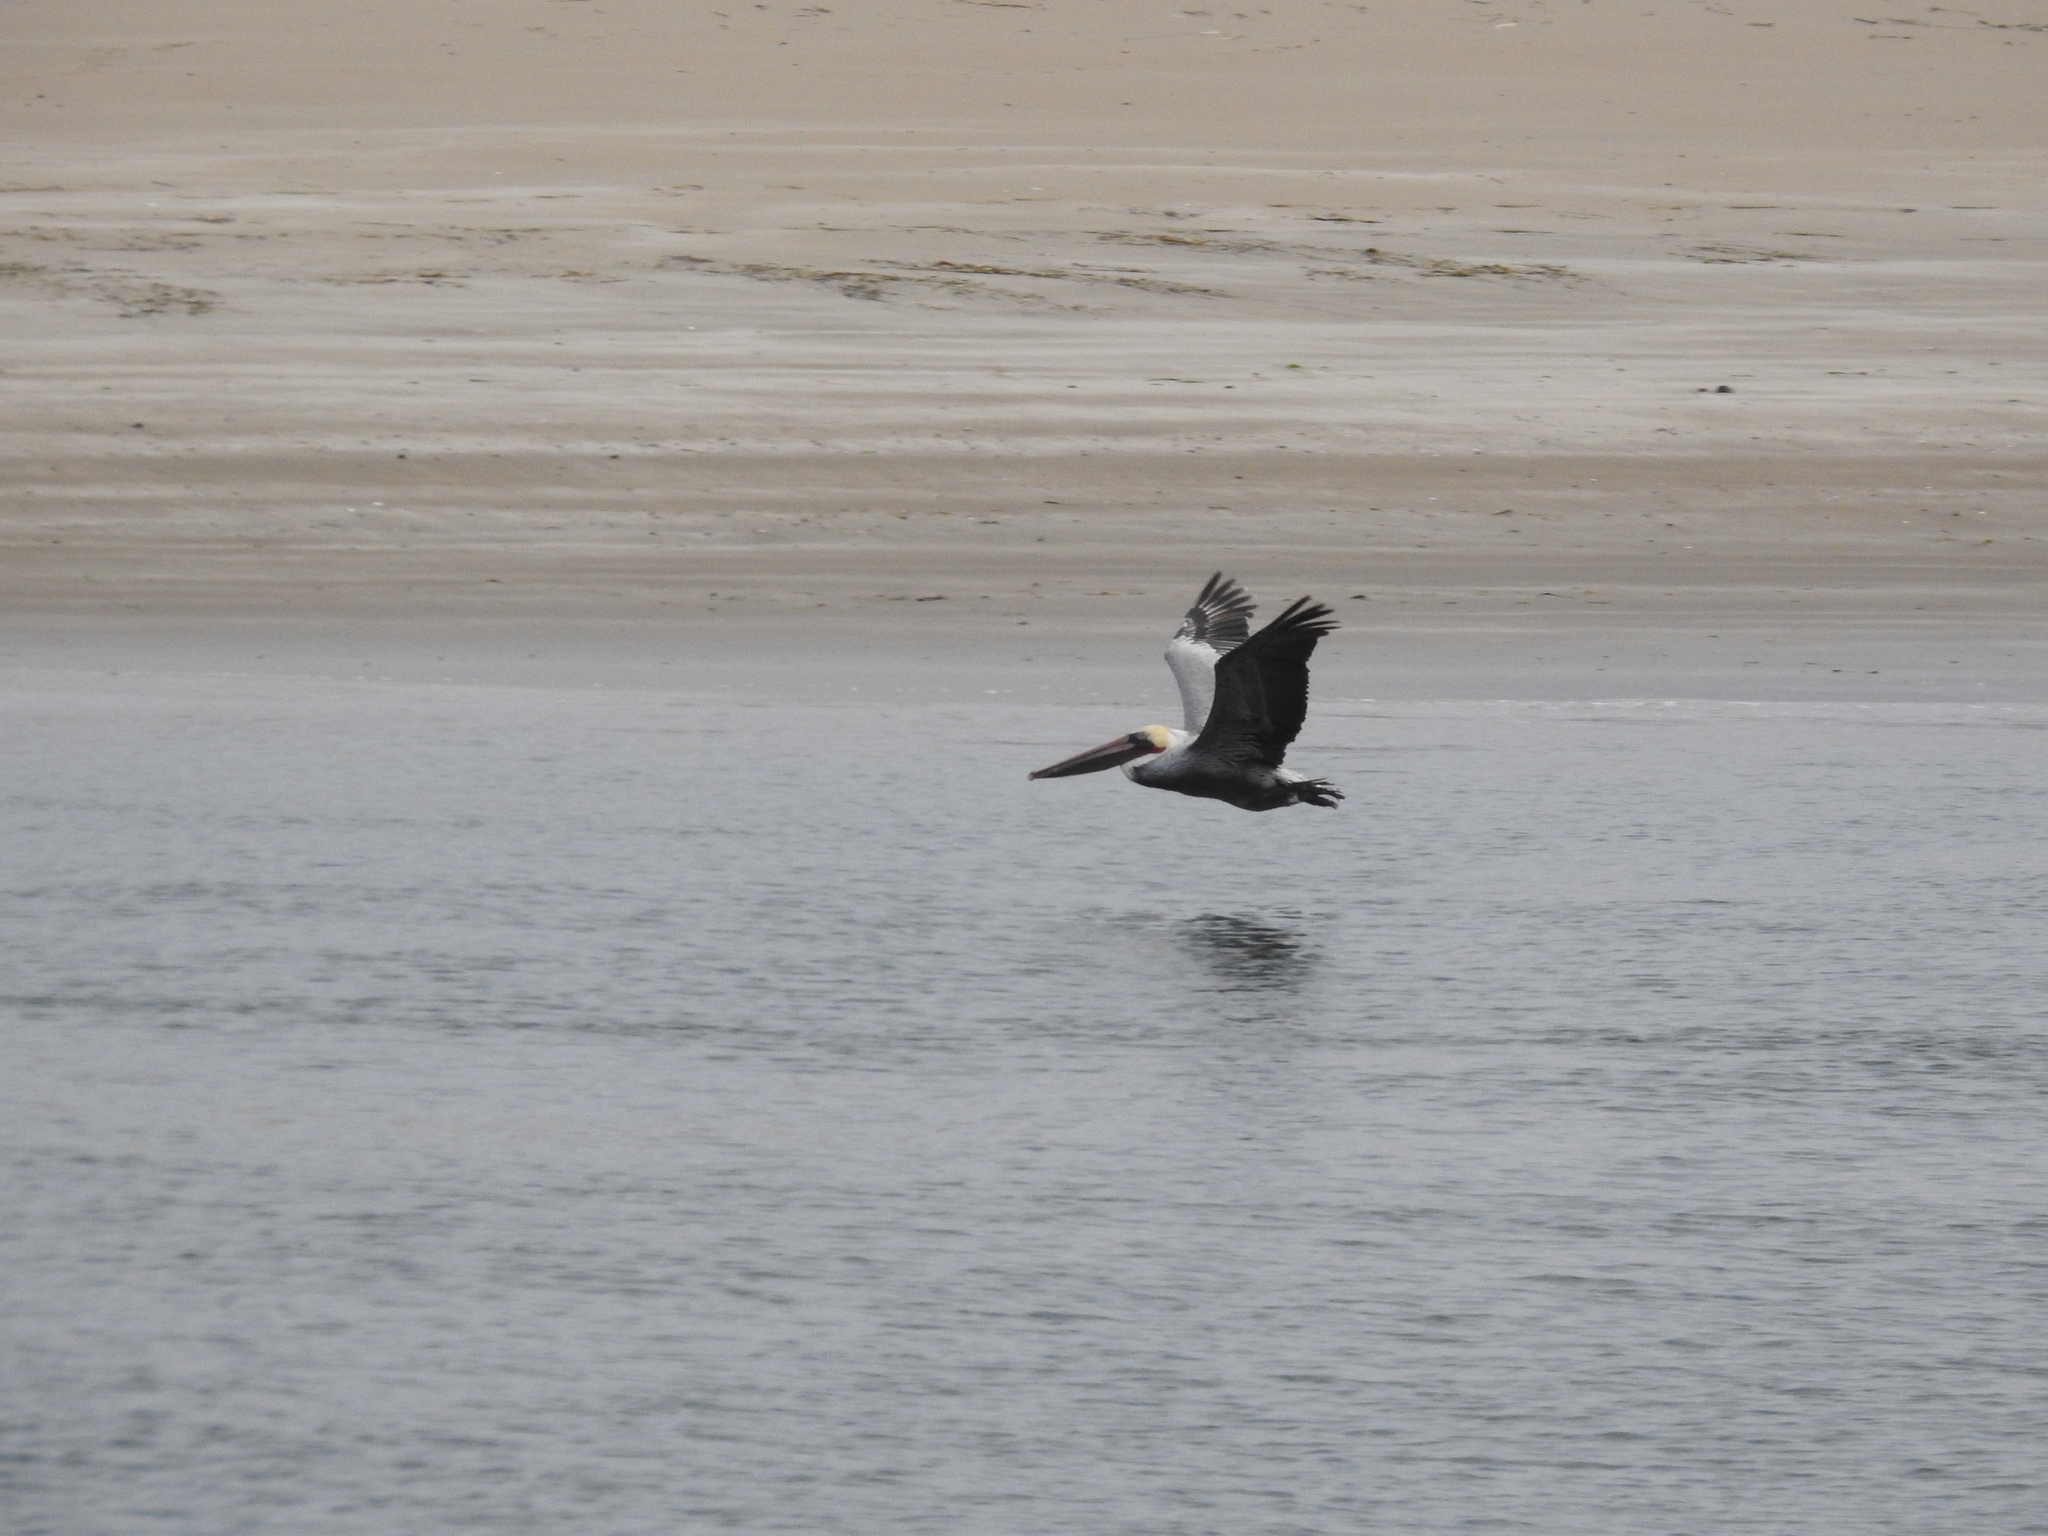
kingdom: Animalia
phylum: Chordata
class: Aves
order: Pelecaniformes
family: Pelecanidae
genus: Pelecanus
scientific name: Pelecanus occidentalis
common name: Brown pelican
